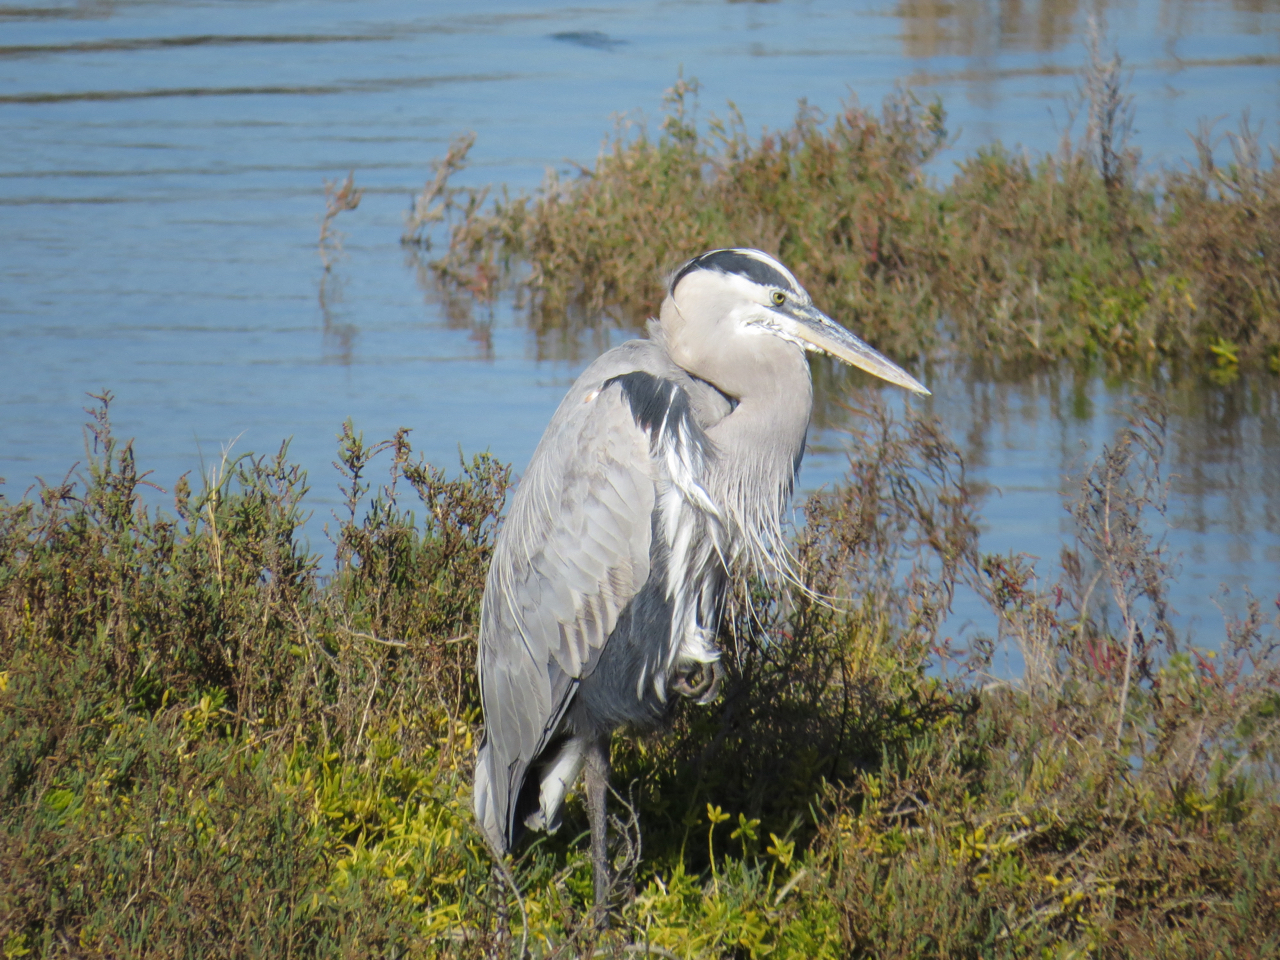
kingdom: Animalia
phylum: Chordata
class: Aves
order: Pelecaniformes
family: Ardeidae
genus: Ardea
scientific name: Ardea herodias
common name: Great blue heron
